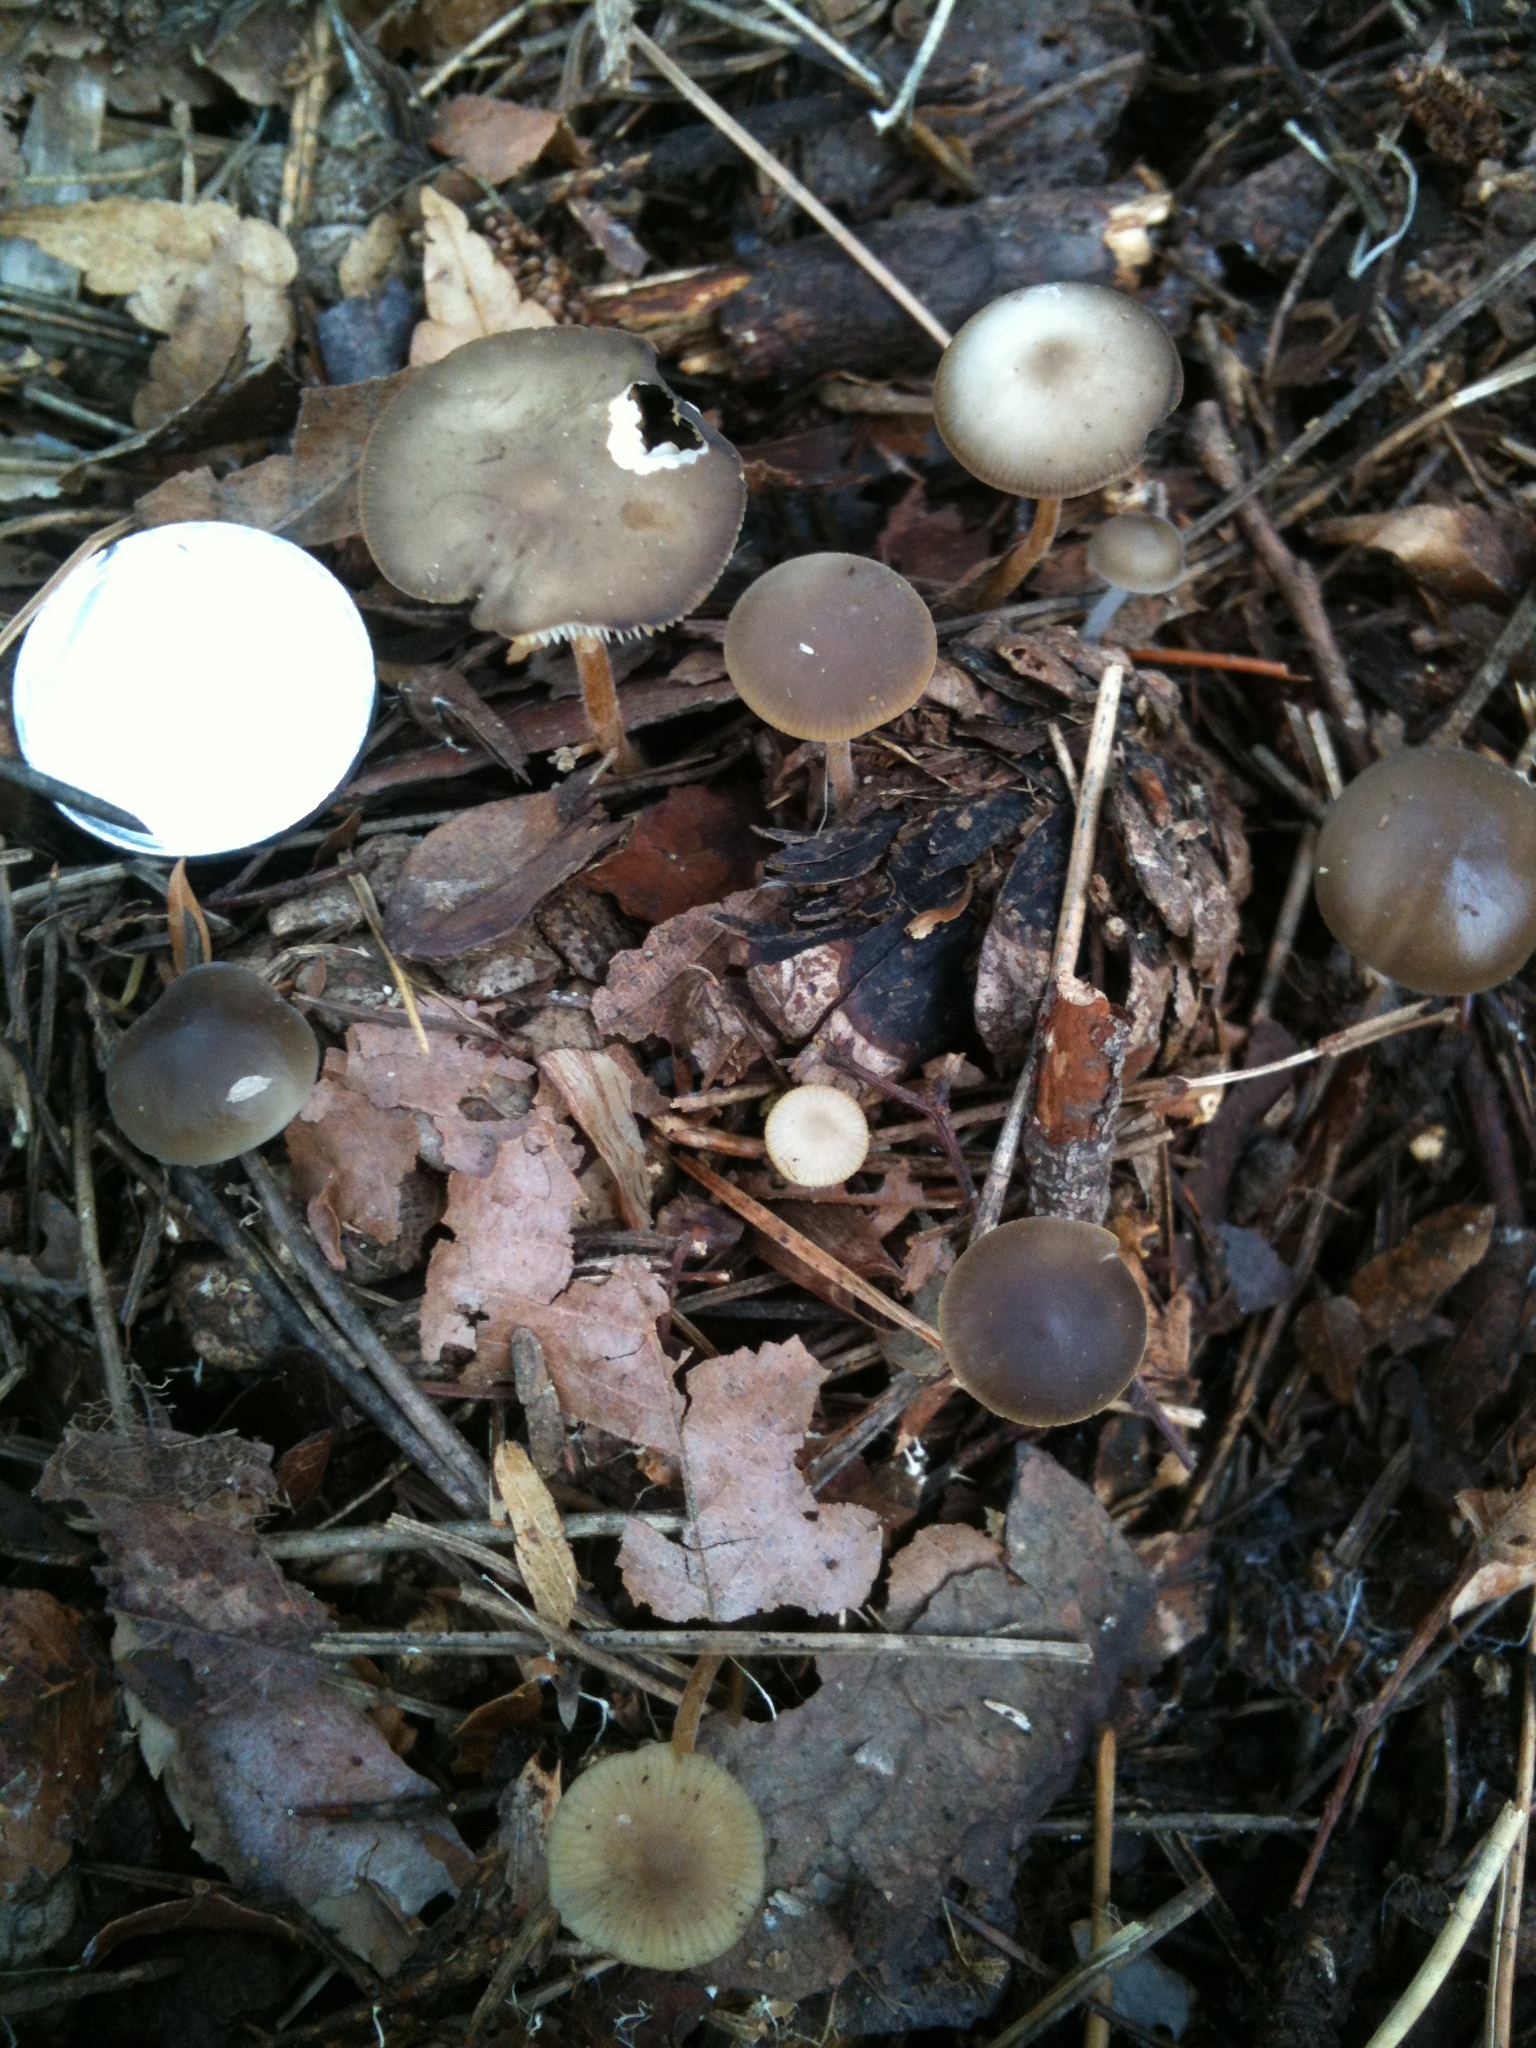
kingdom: Fungi
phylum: Basidiomycota
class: Agaricomycetes
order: Agaricales
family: Physalacriaceae
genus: Strobilurus
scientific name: Strobilurus stephanocystis
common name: Russian conecap
